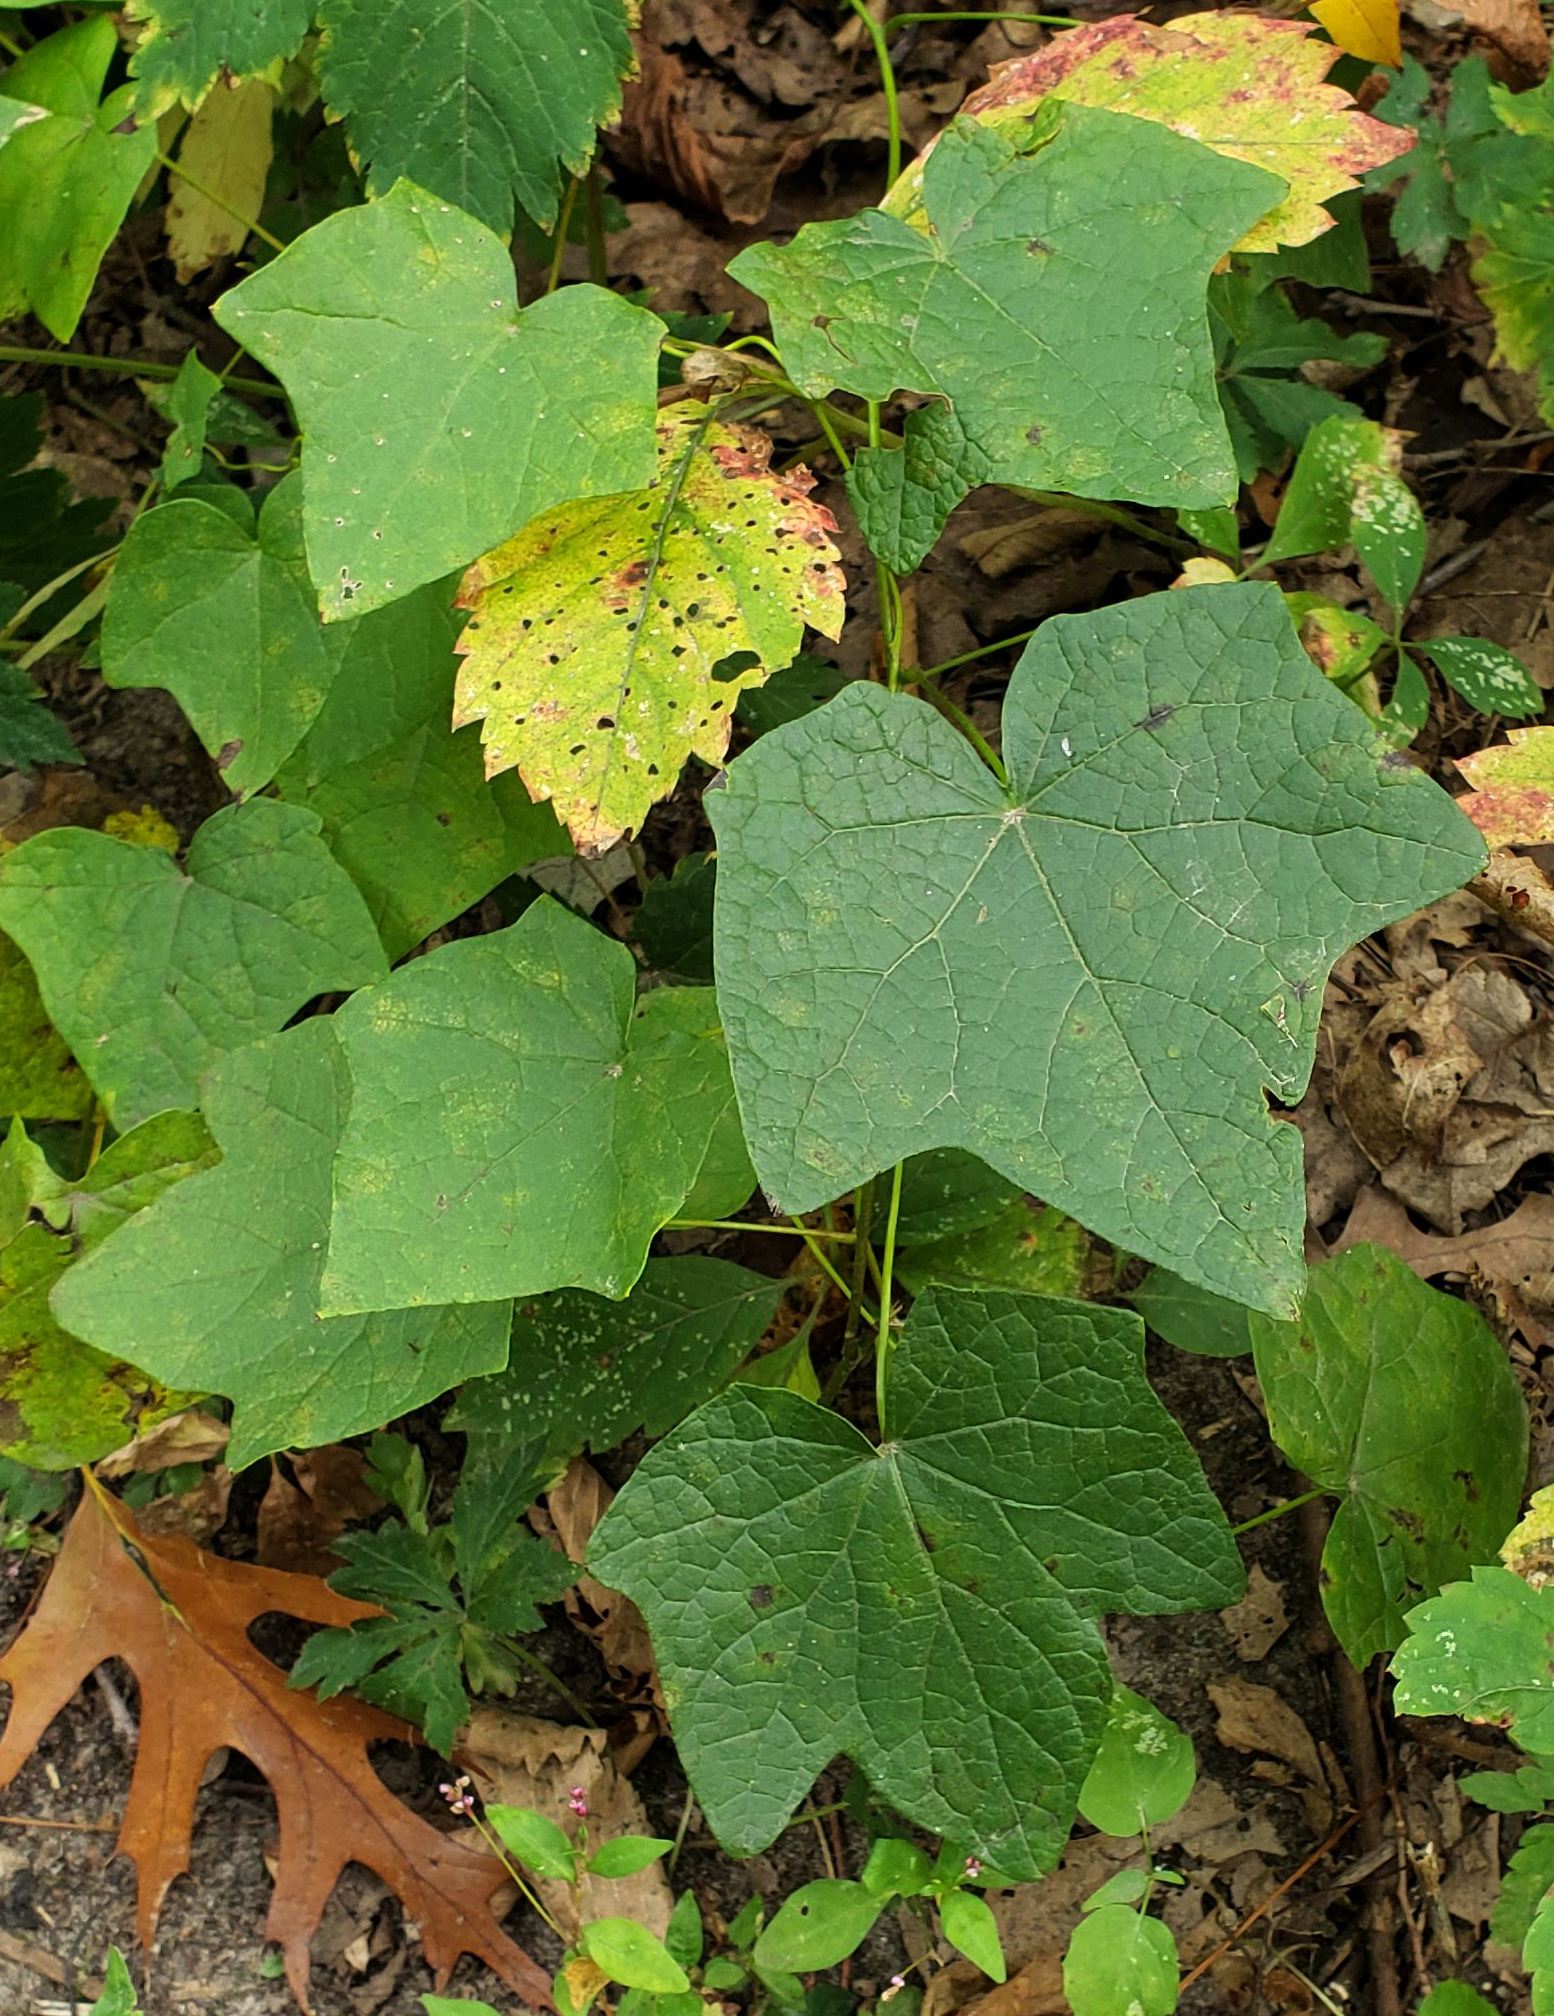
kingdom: Plantae
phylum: Tracheophyta
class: Magnoliopsida
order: Ranunculales
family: Menispermaceae
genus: Menispermum
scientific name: Menispermum canadense
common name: Moonseed
